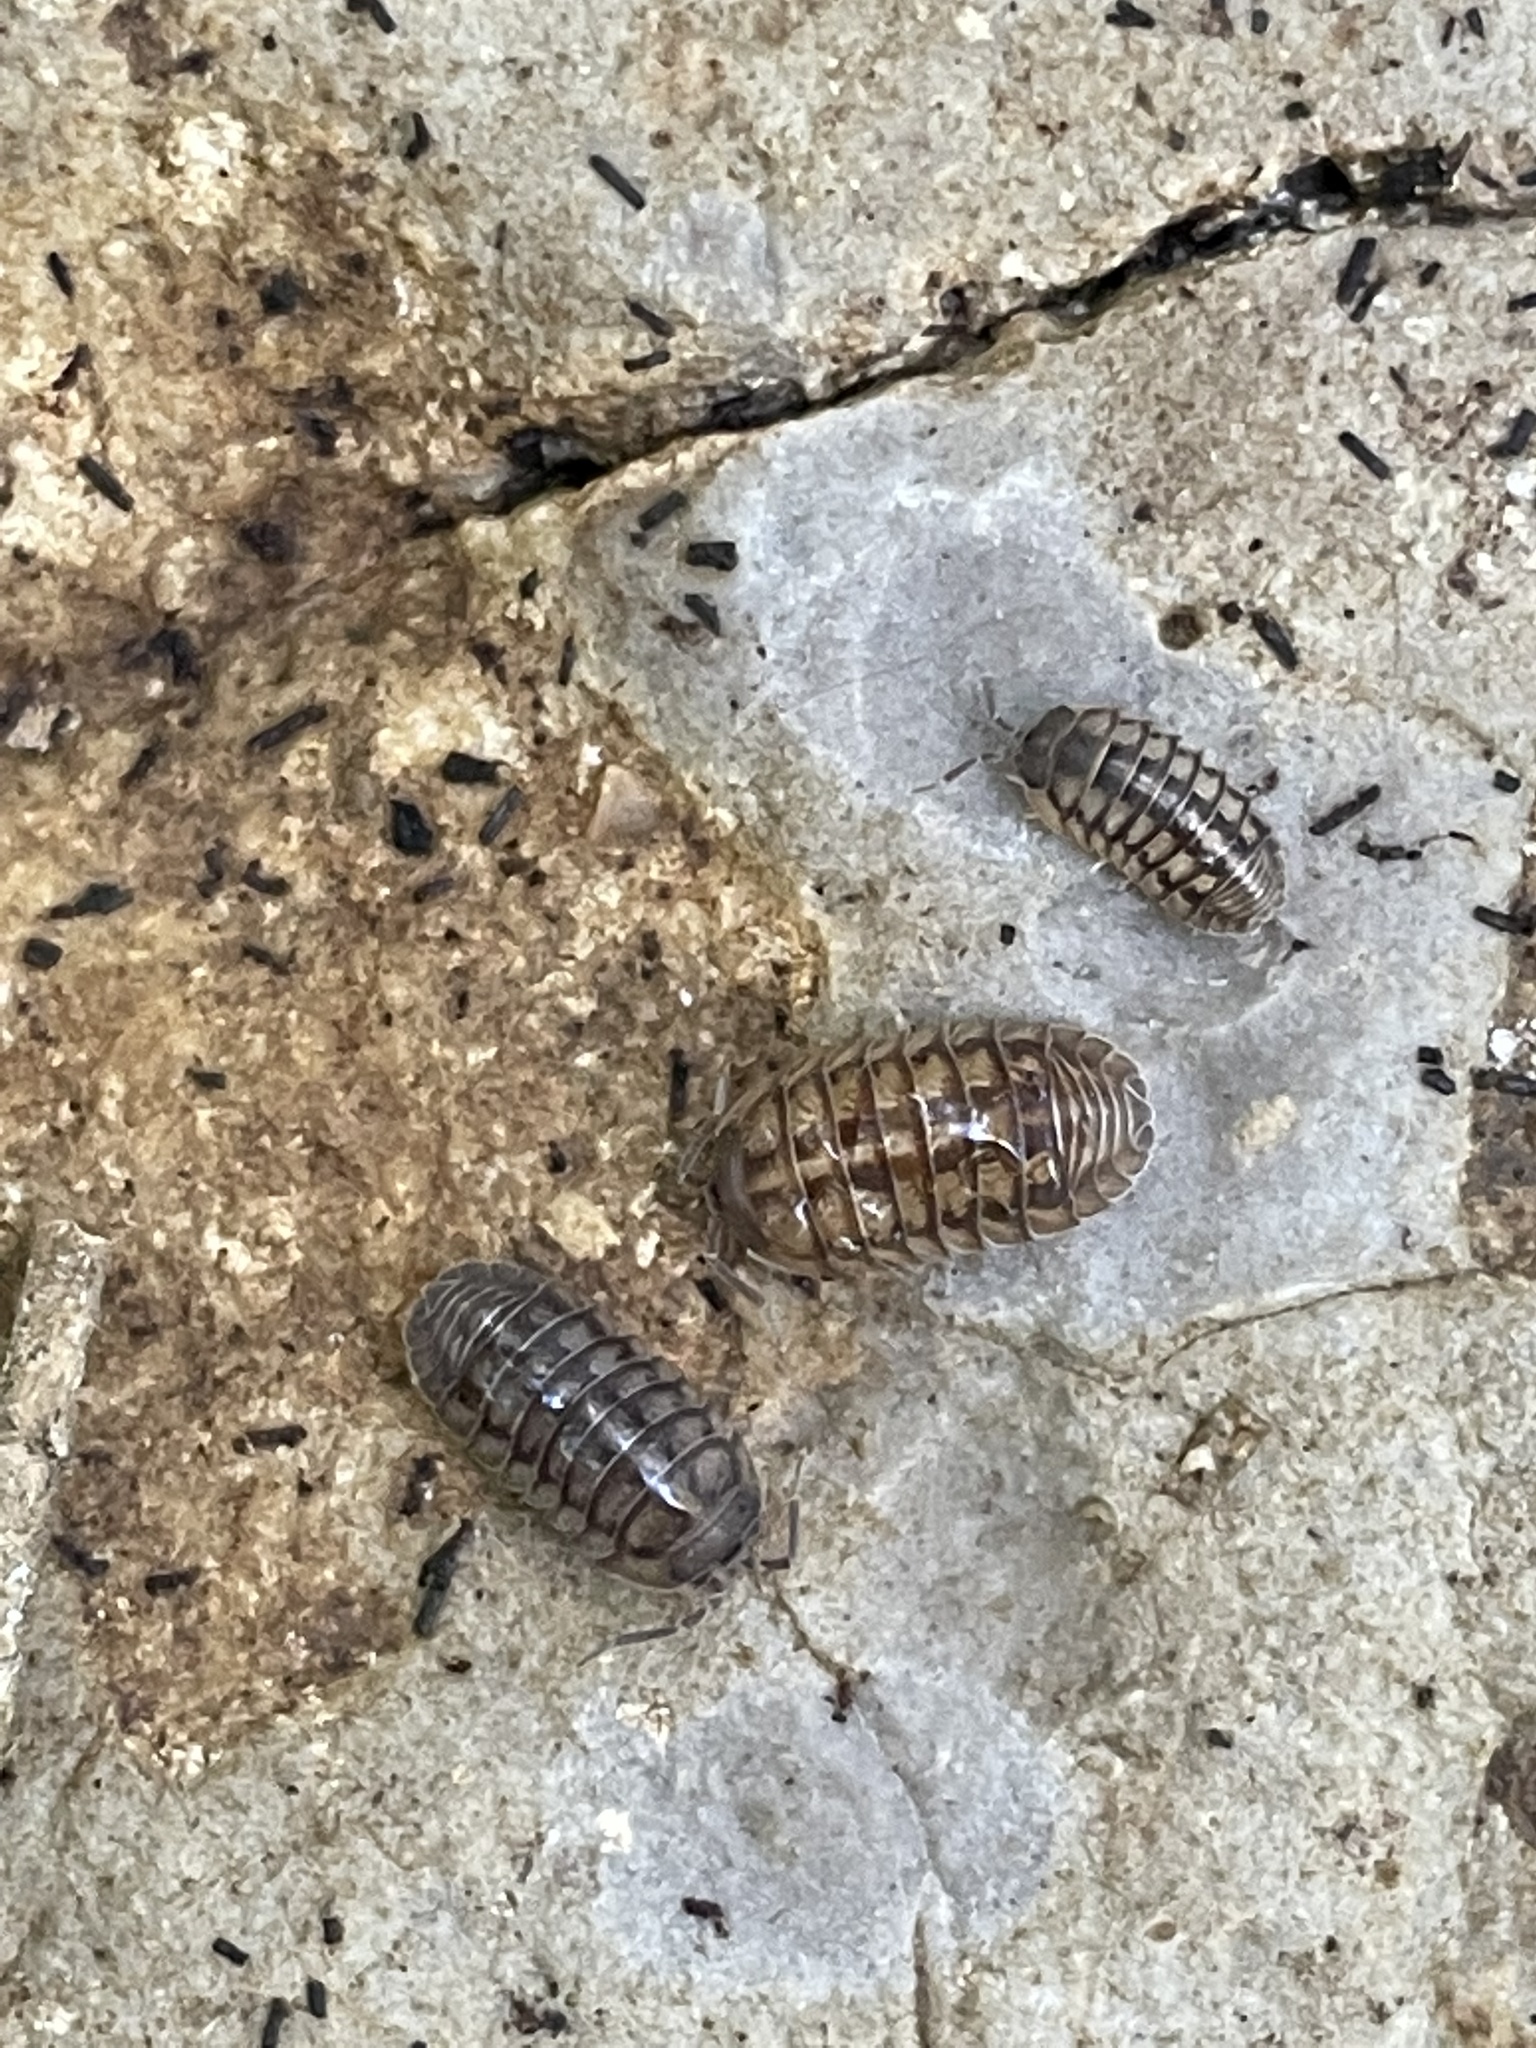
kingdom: Animalia
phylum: Arthropoda
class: Malacostraca
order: Isopoda
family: Armadillidiidae
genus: Armadillidium
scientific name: Armadillidium nasatum
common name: Isopod
